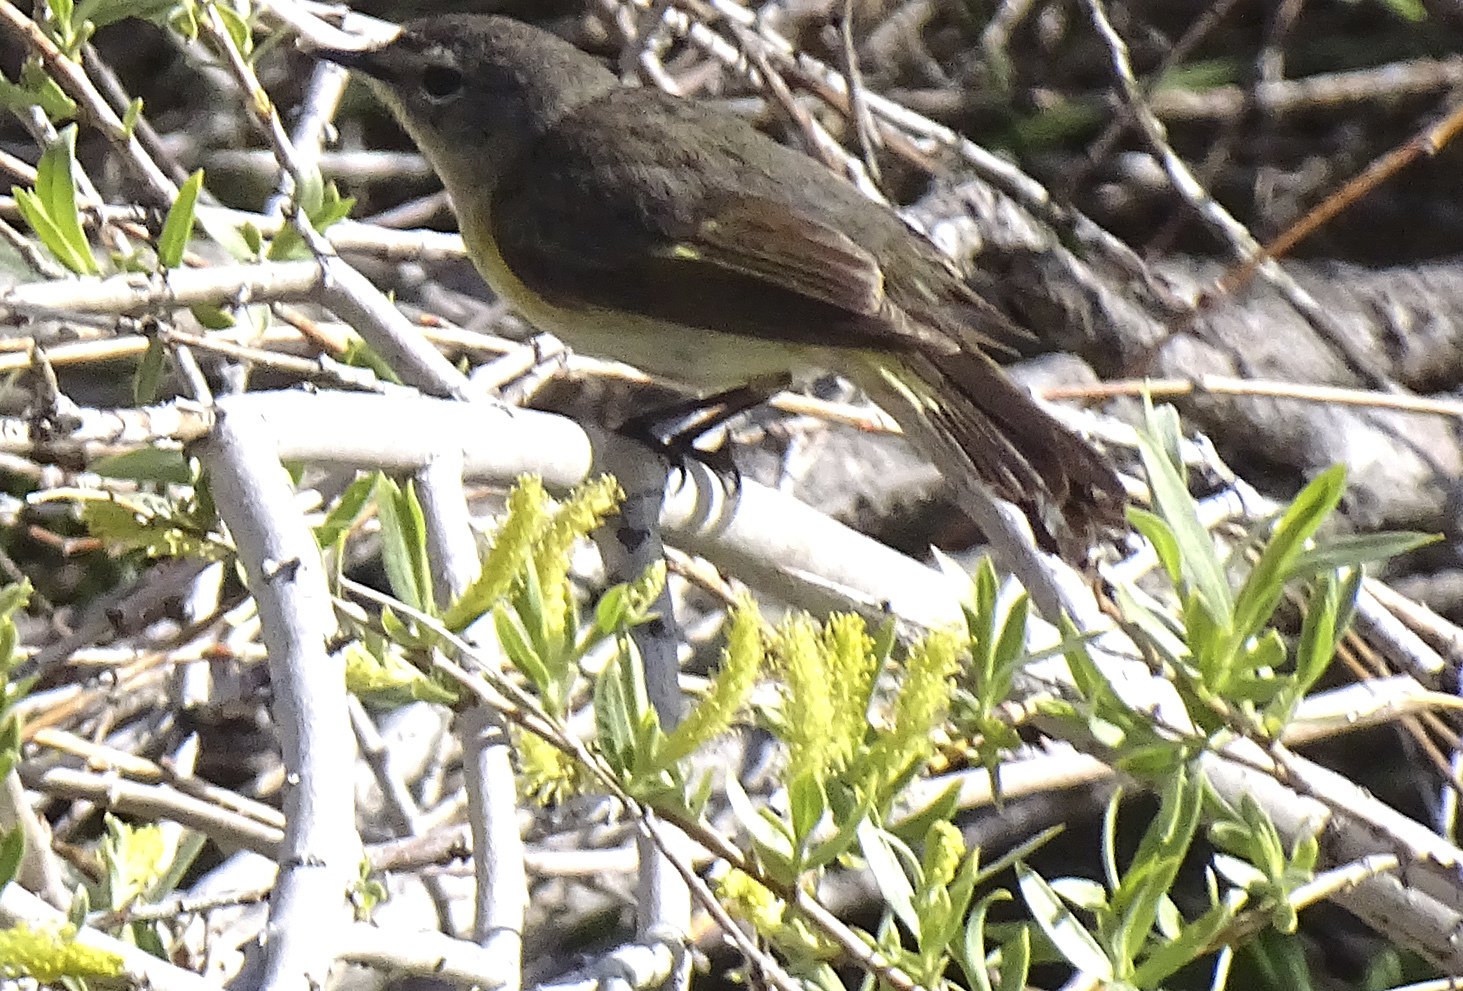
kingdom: Animalia
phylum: Chordata
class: Aves
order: Passeriformes
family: Parulidae
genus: Setophaga
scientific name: Setophaga ruticilla
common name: American redstart
